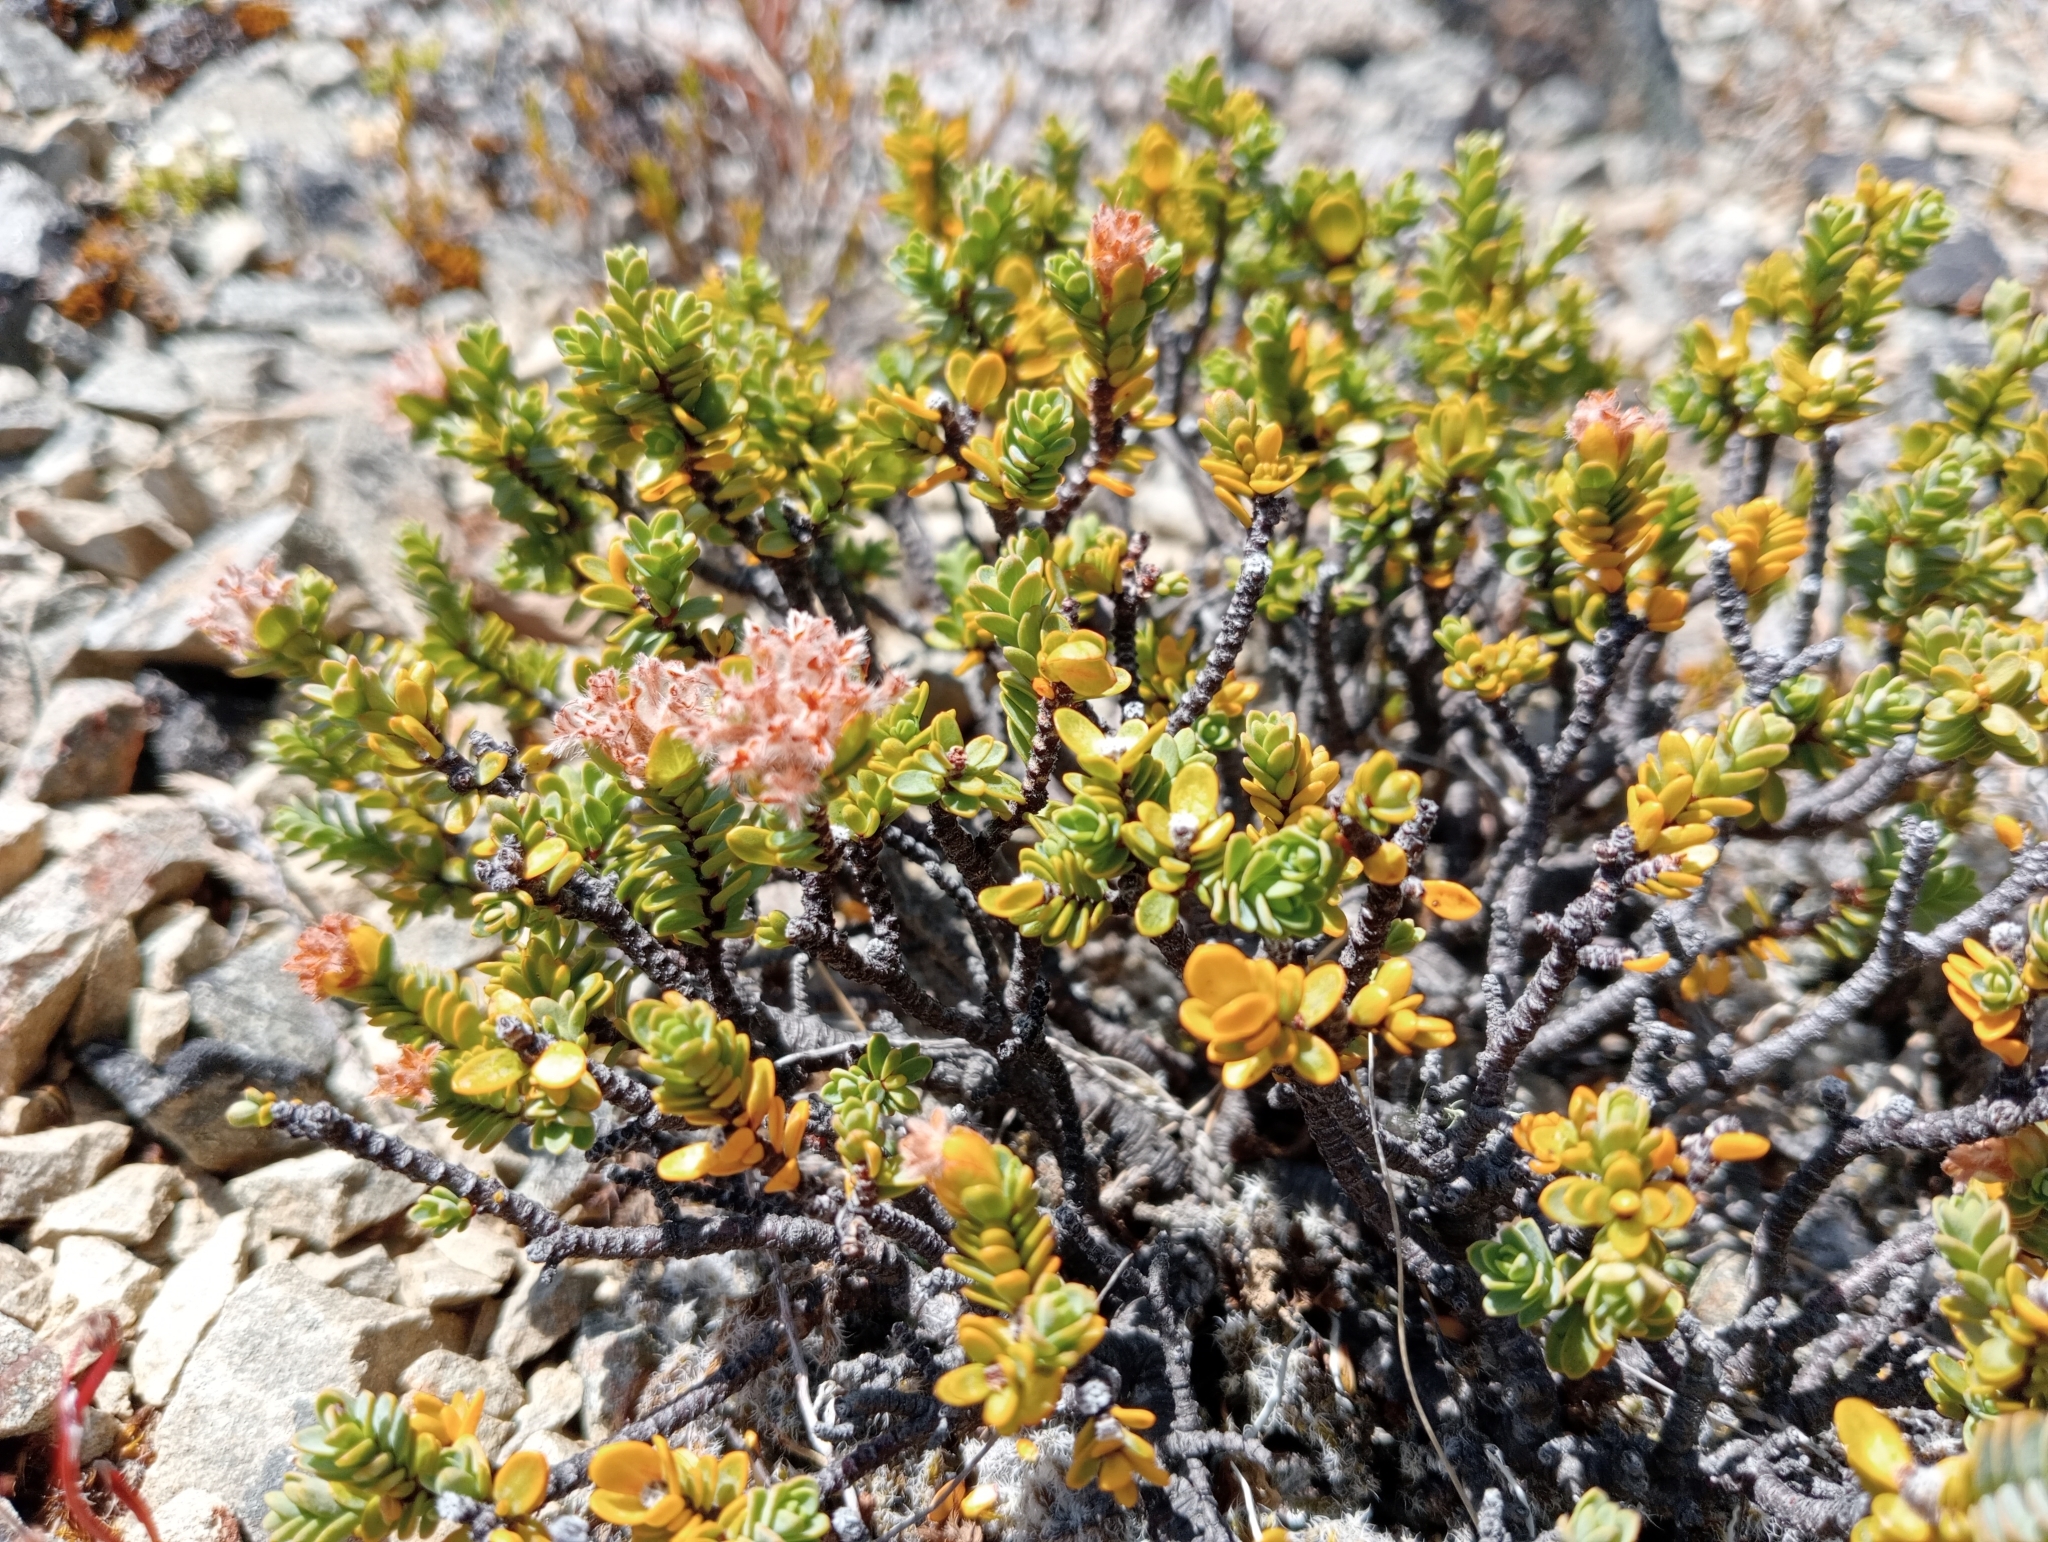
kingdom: Plantae
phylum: Tracheophyta
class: Magnoliopsida
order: Malvales
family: Thymelaeaceae
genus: Pimelea
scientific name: Pimelea traversii
